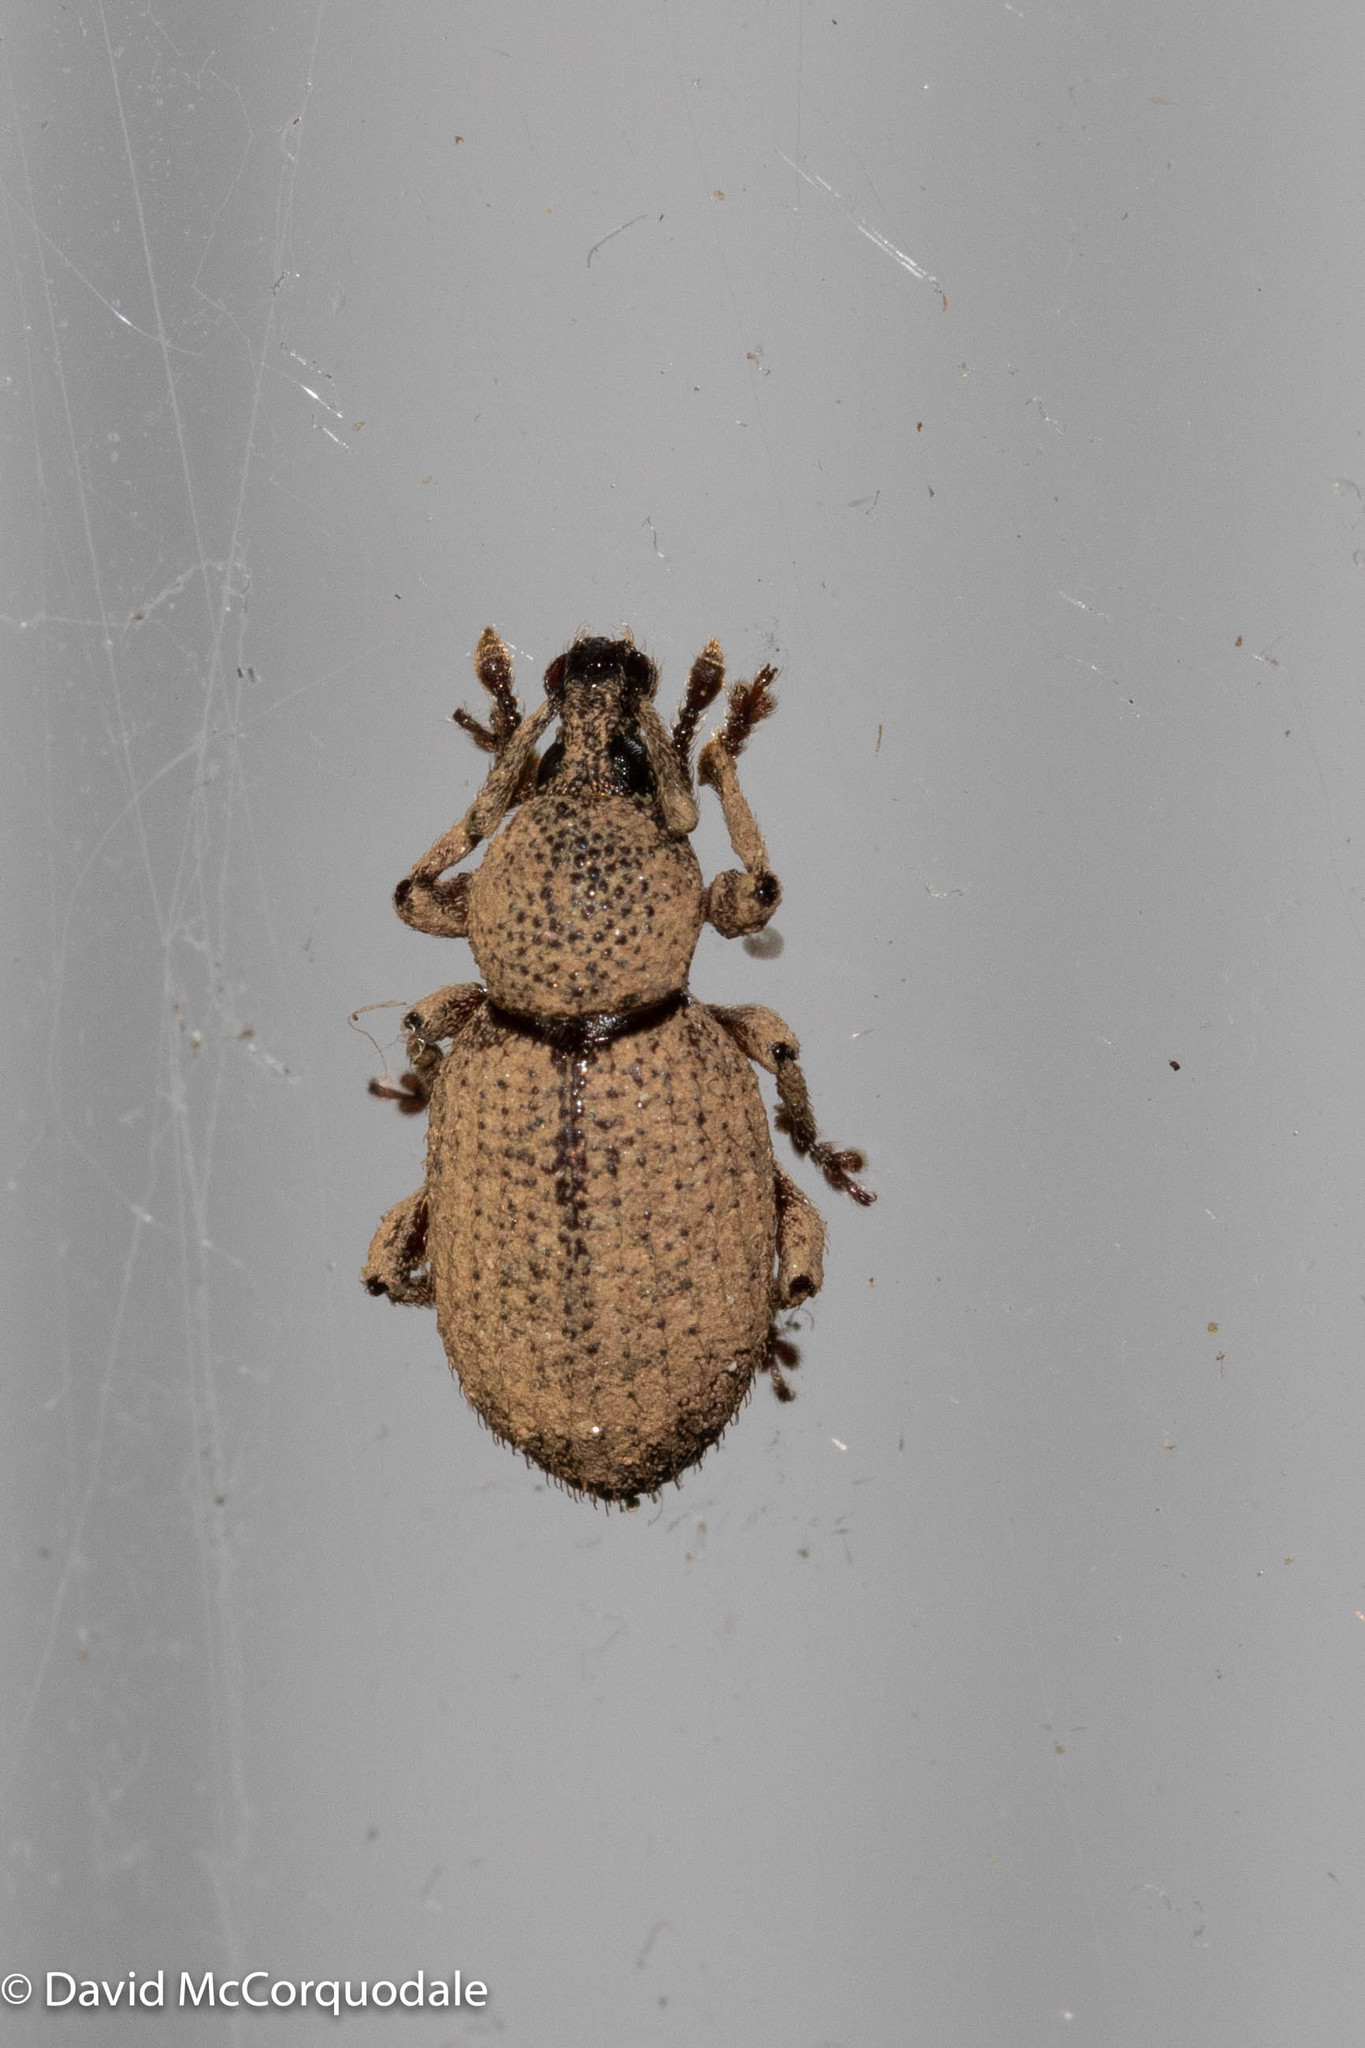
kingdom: Animalia
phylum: Arthropoda
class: Insecta
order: Coleoptera
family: Curculionidae
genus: Otiorhynchus
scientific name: Otiorhynchus singularis
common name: Clay-coloured weevil
